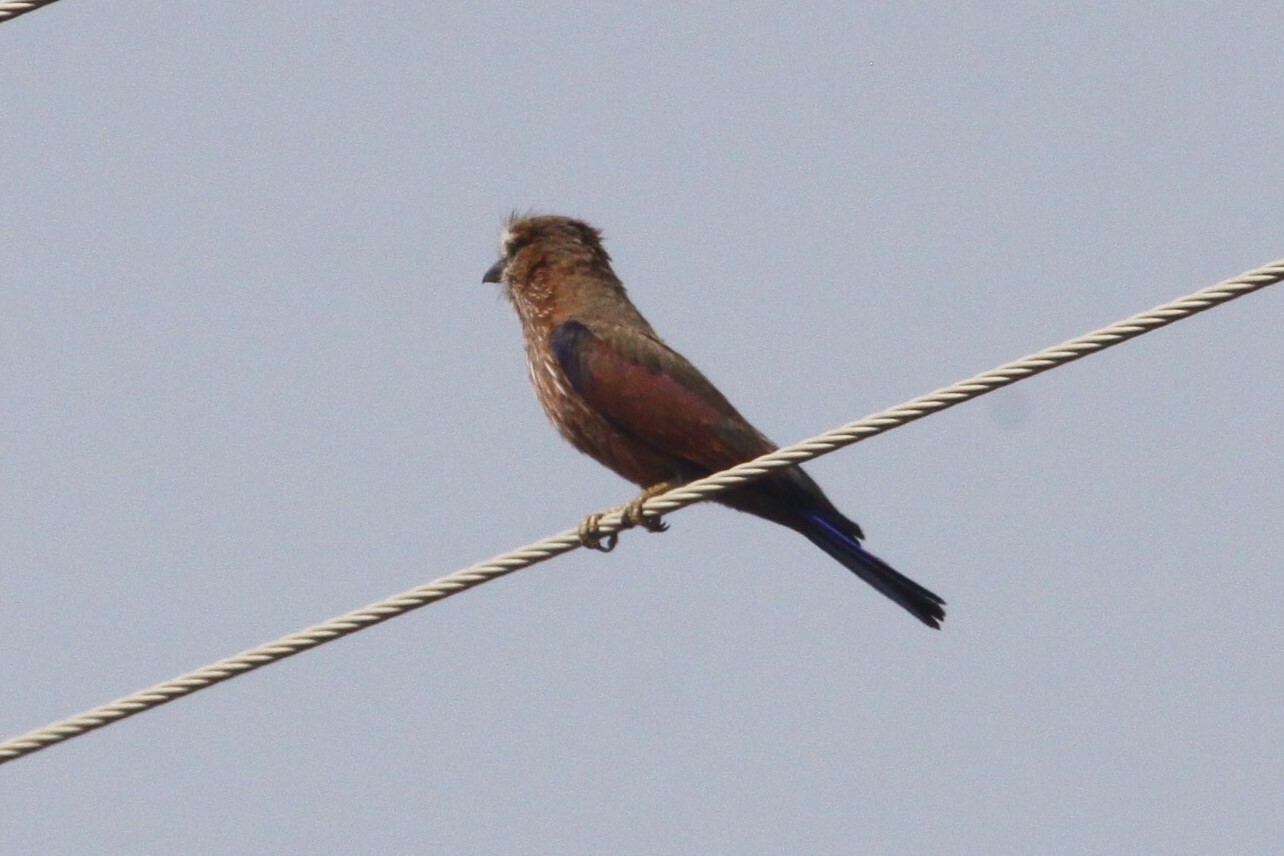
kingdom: Animalia
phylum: Chordata
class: Aves
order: Coraciiformes
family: Coraciidae
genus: Coracias
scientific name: Coracias naevius
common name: Purple roller
